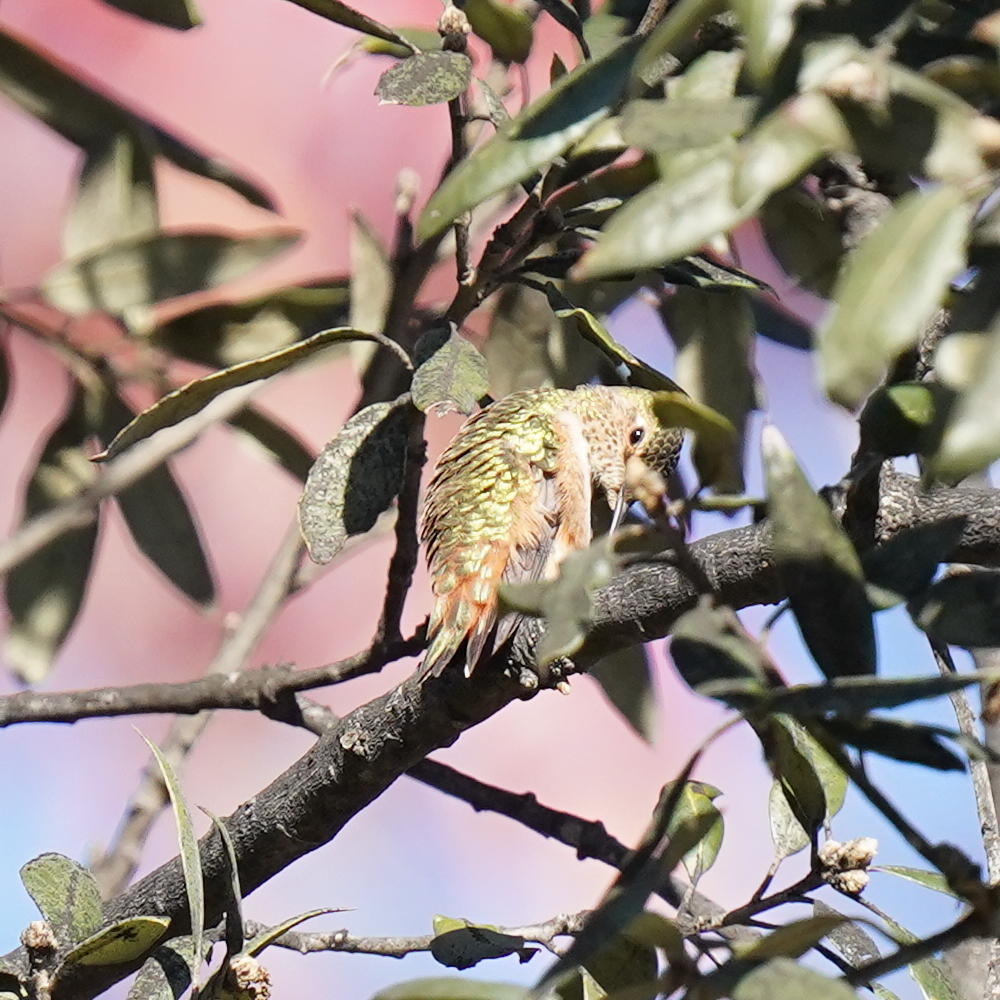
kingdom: Animalia
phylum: Chordata
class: Aves
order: Apodiformes
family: Trochilidae
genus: Selasphorus
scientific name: Selasphorus sasin
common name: Allen's hummingbird
